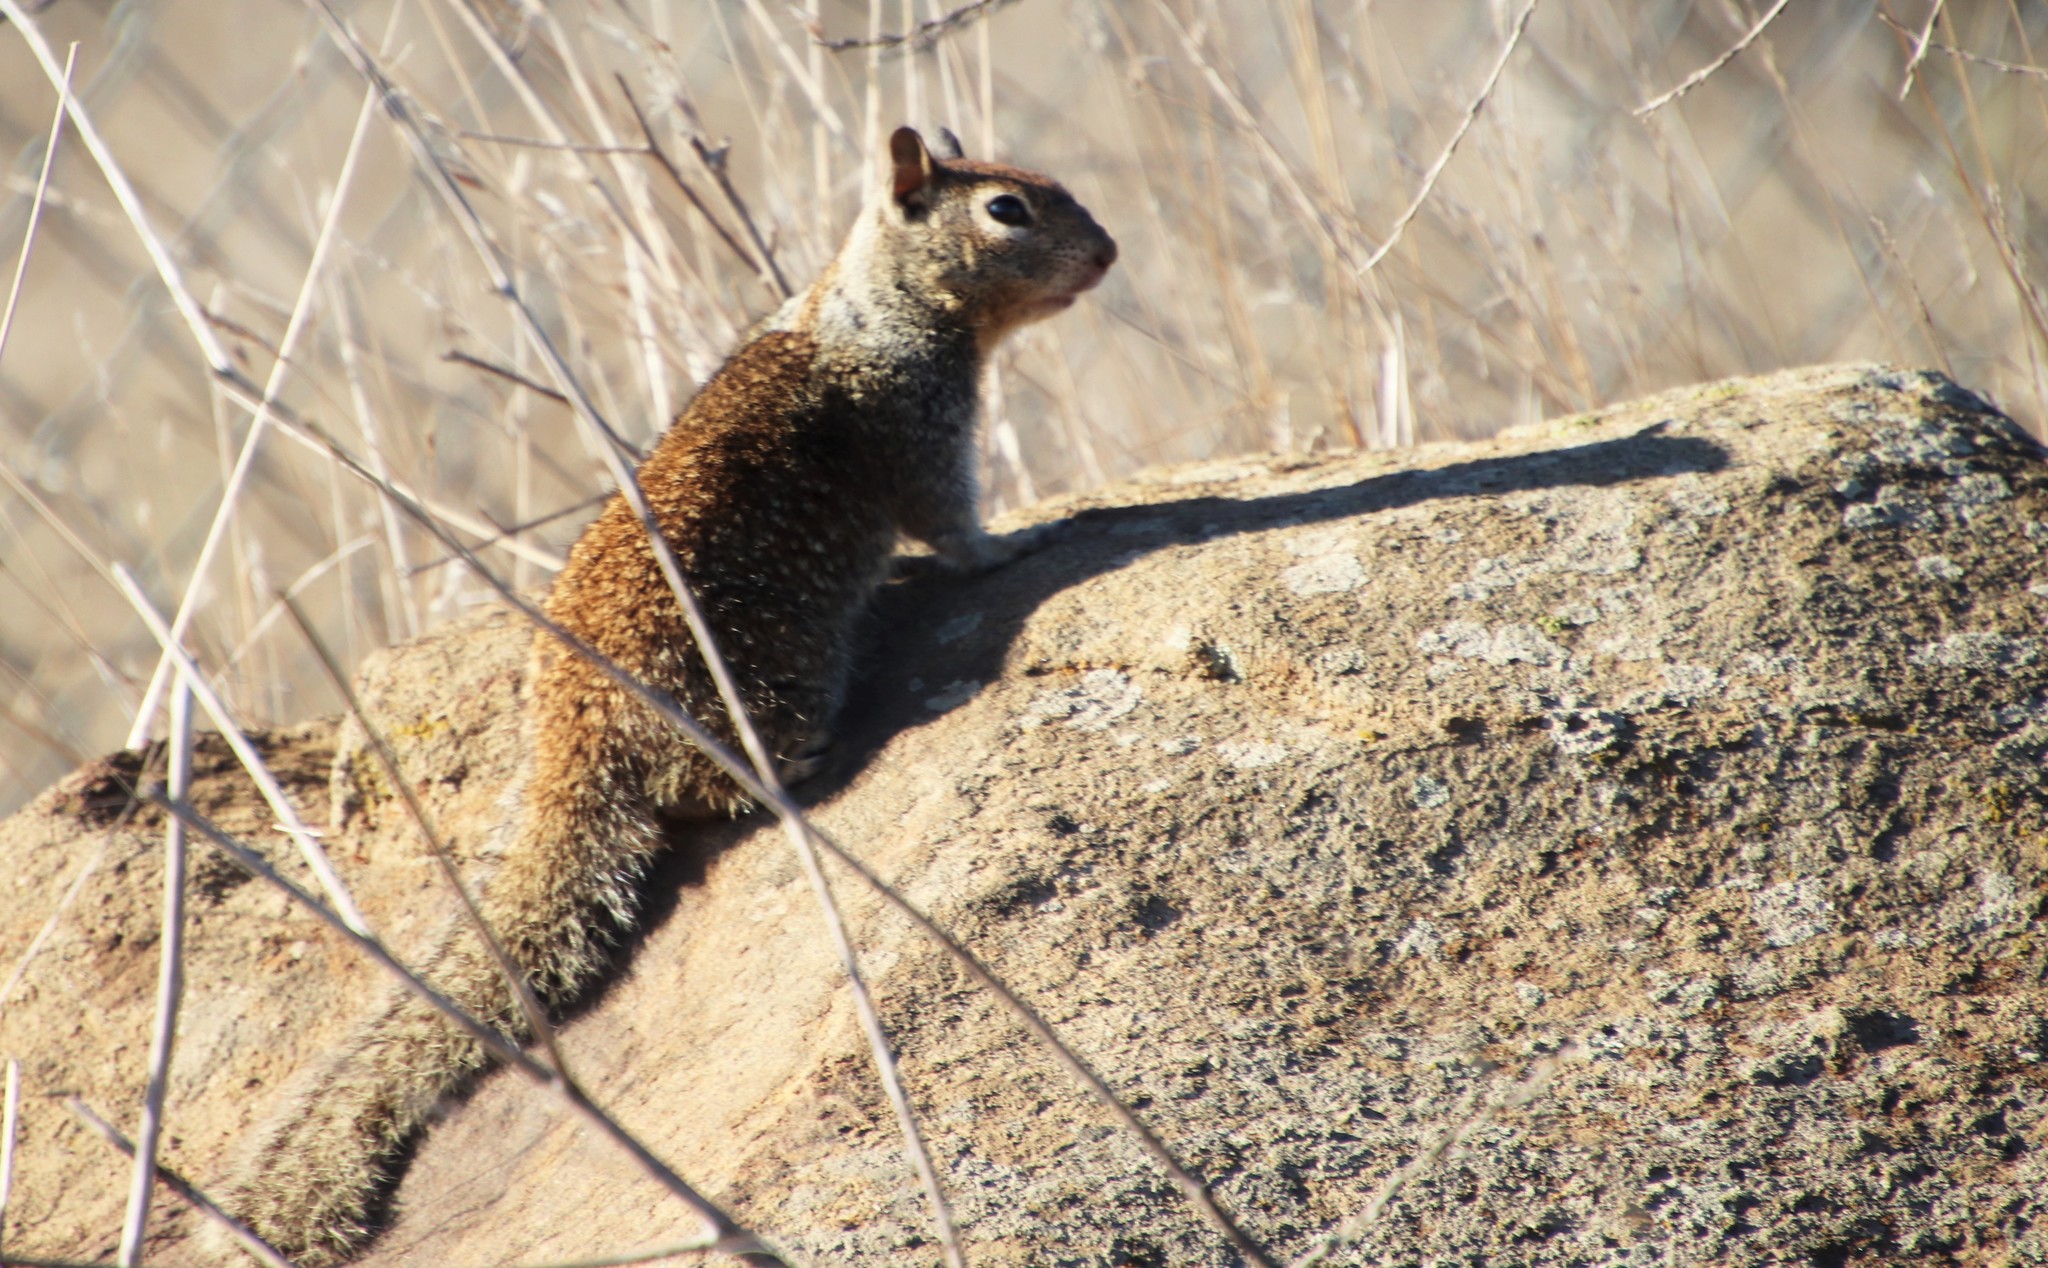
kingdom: Animalia
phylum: Chordata
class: Mammalia
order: Rodentia
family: Sciuridae
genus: Otospermophilus
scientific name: Otospermophilus beecheyi
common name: California ground squirrel
